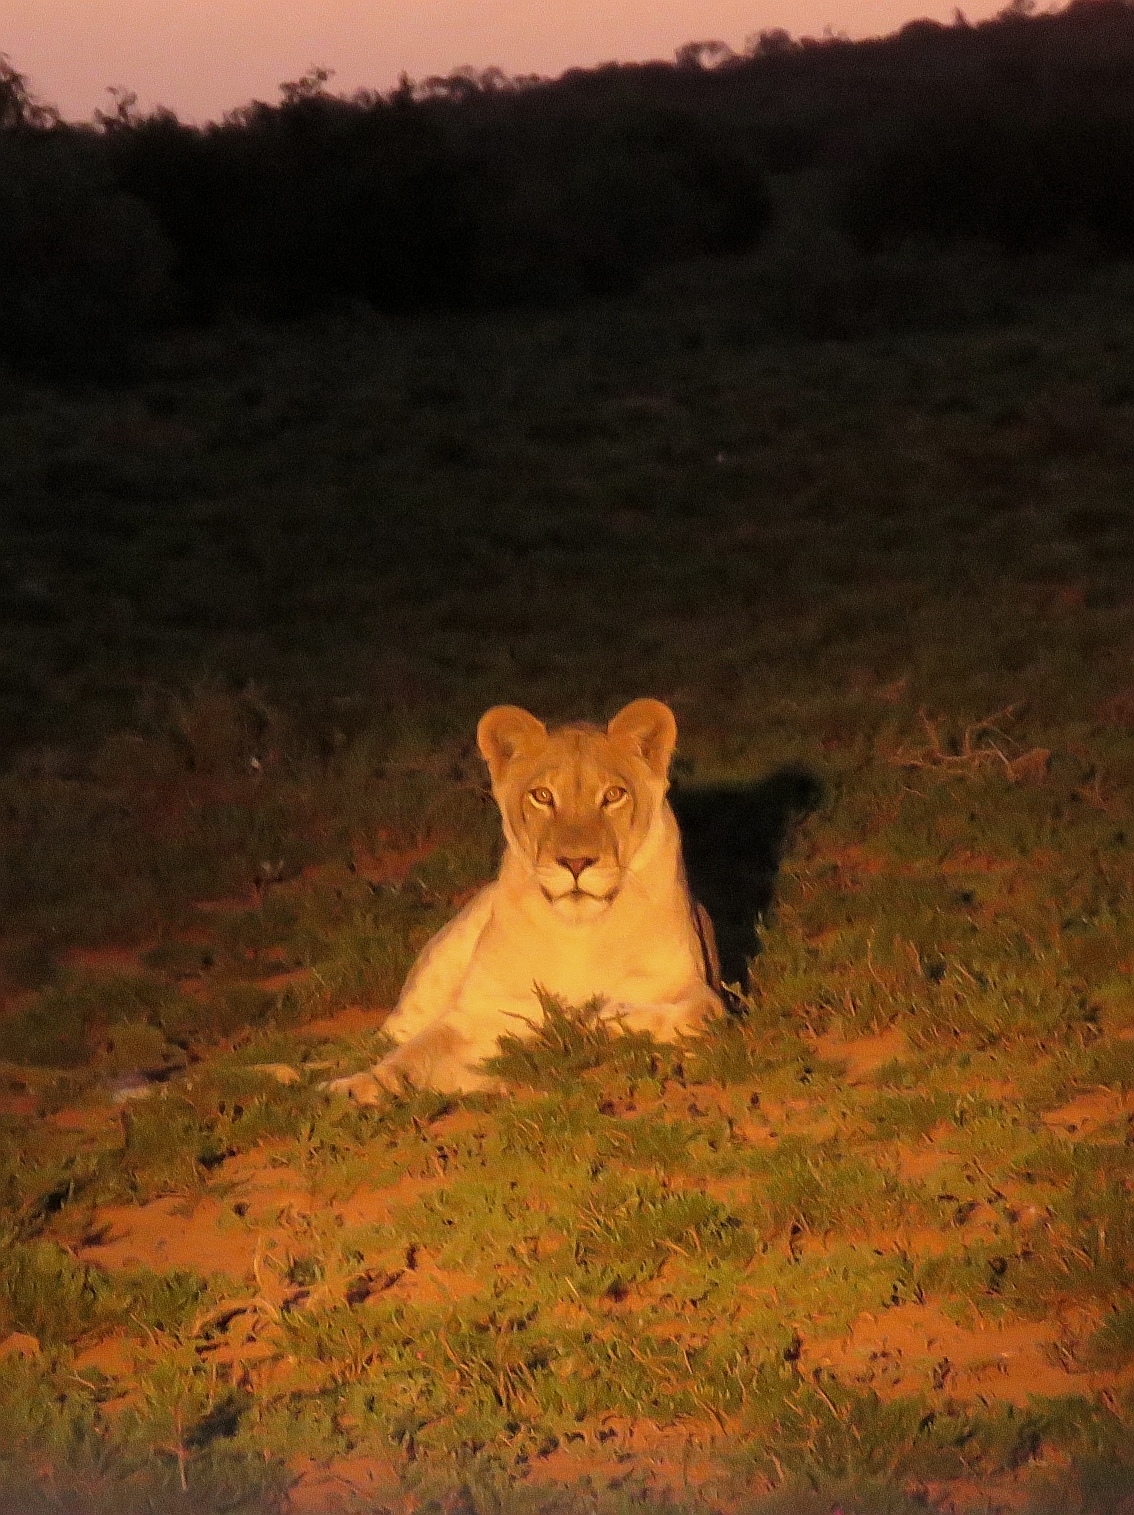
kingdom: Animalia
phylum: Chordata
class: Mammalia
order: Carnivora
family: Felidae
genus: Panthera
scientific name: Panthera leo
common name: Lion
